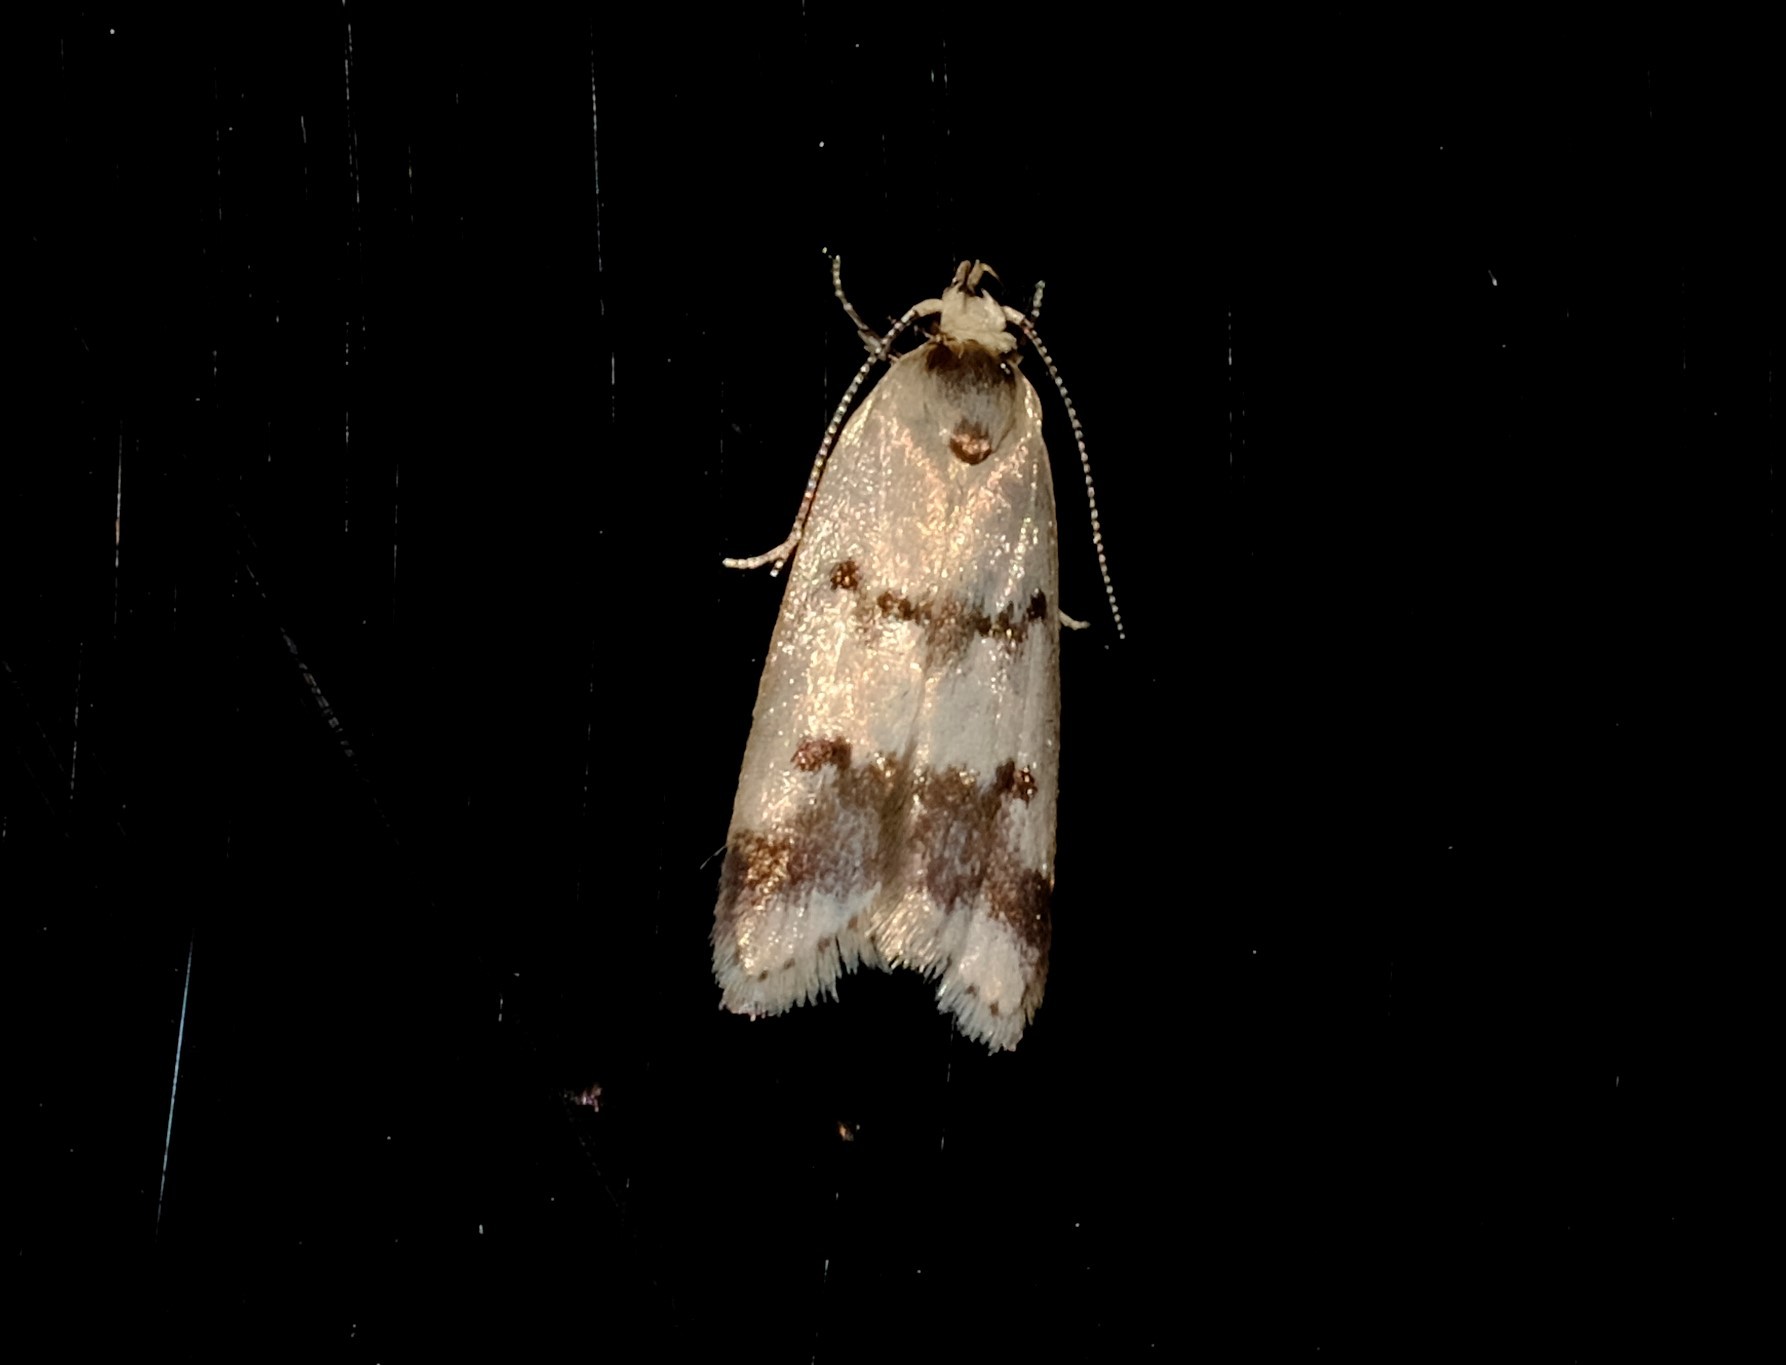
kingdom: Animalia
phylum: Arthropoda
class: Insecta
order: Lepidoptera
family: Oecophoridae
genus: Compsotropha
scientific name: Compsotropha strophiella
